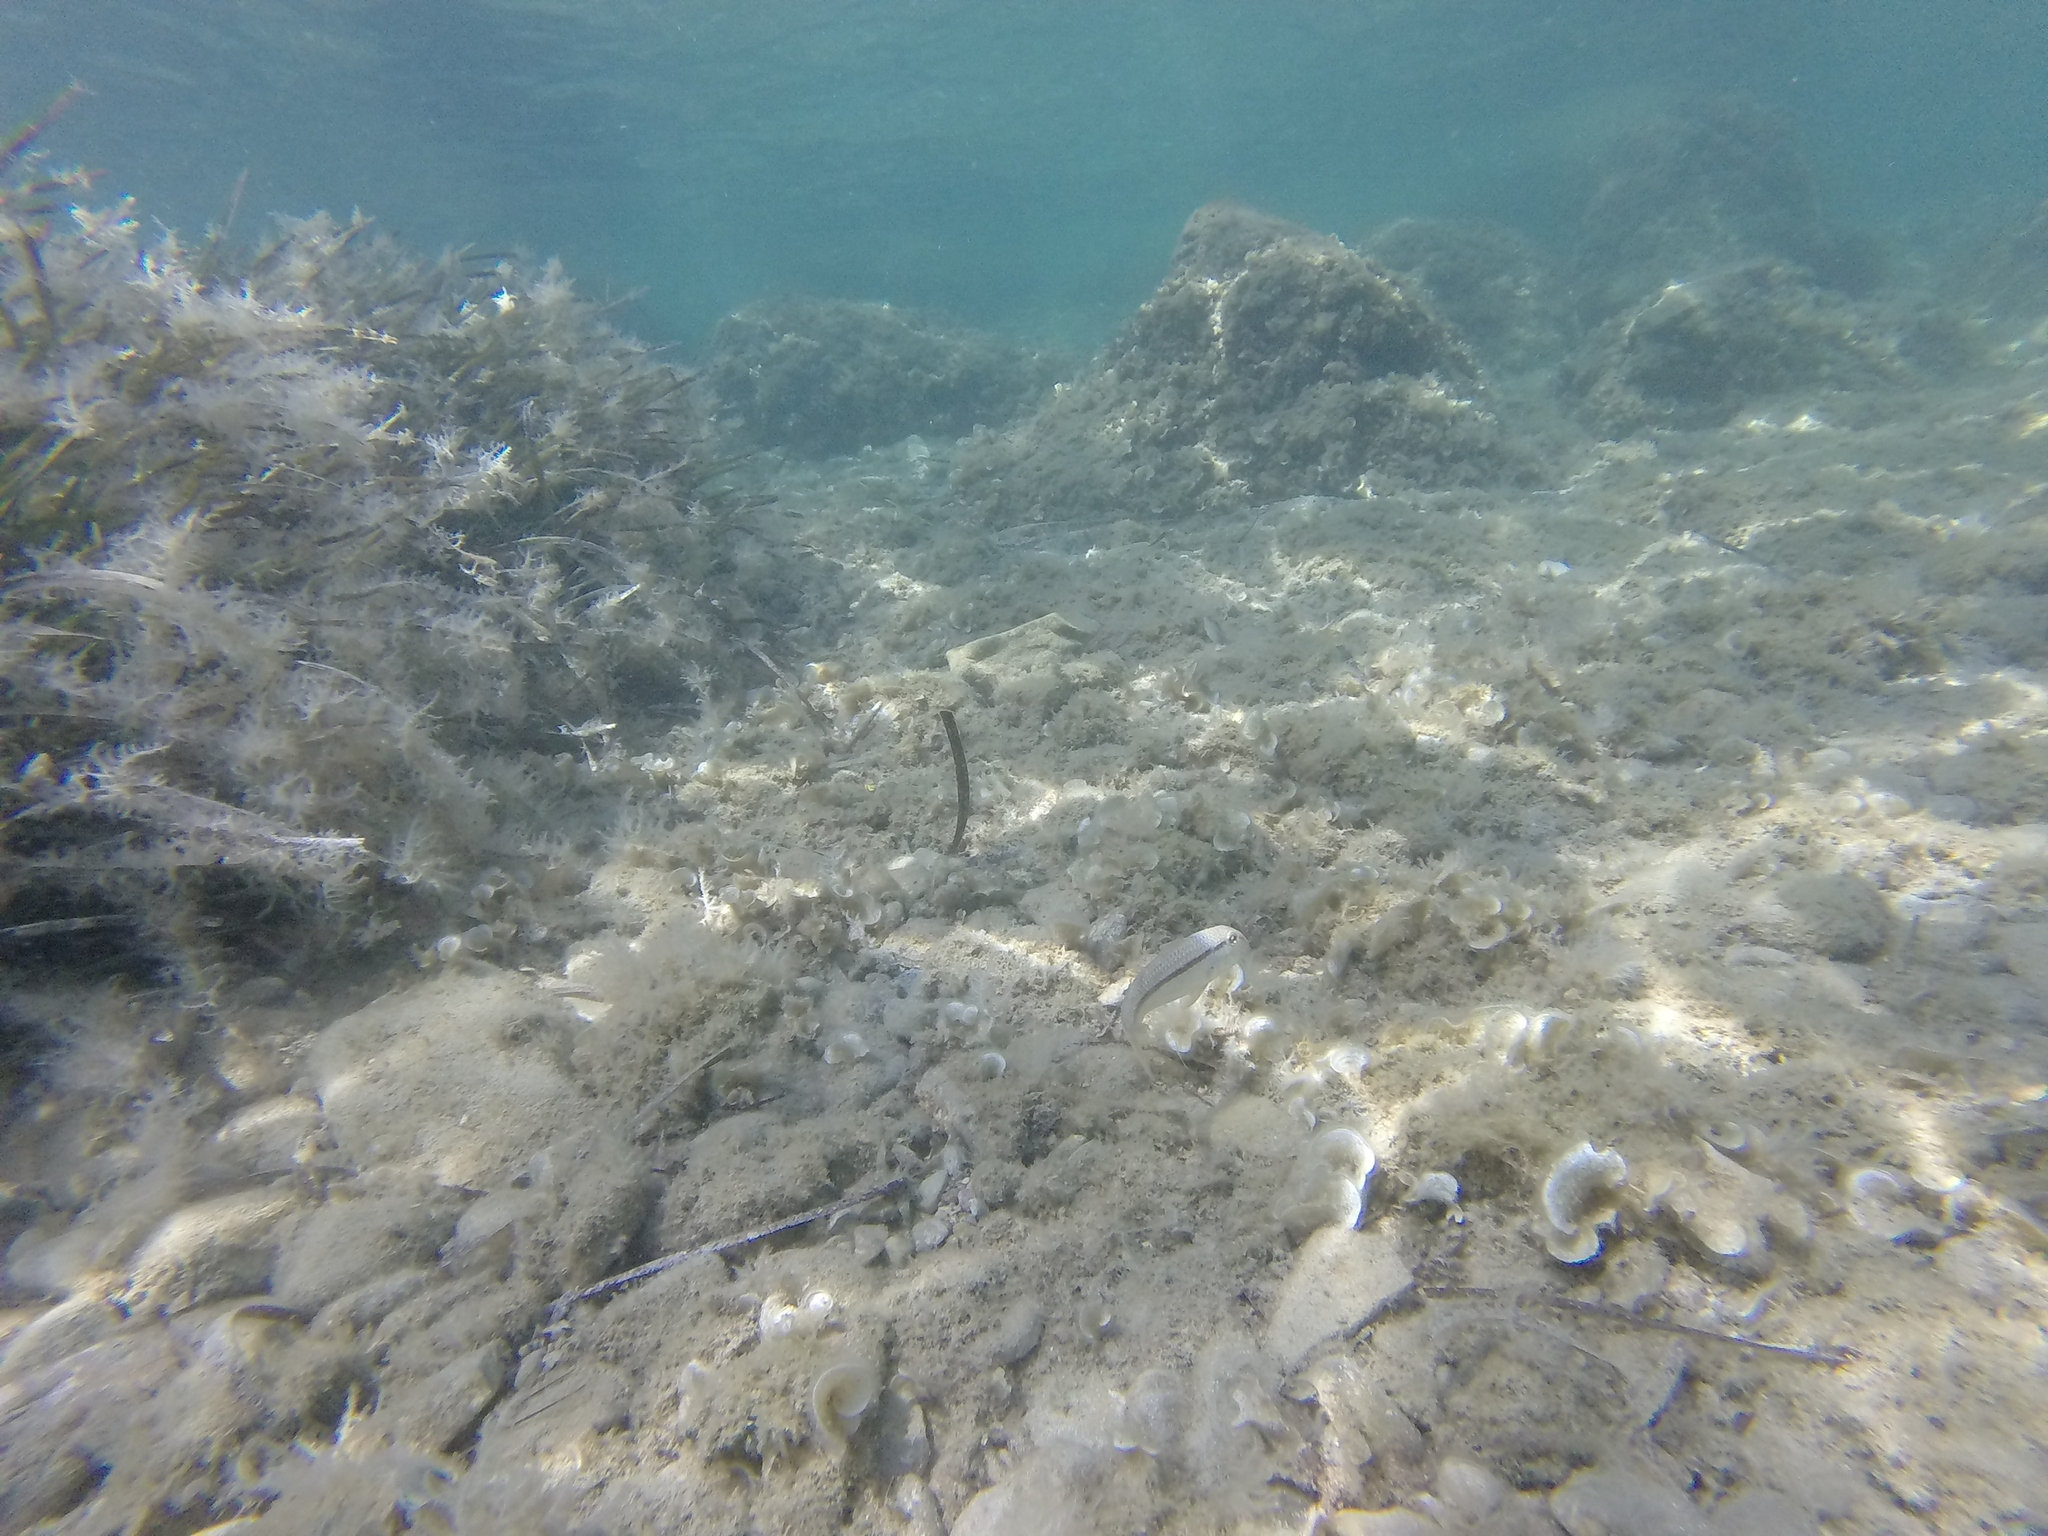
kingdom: Animalia
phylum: Chordata
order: Perciformes
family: Mullidae
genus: Mullus
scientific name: Mullus barbatus
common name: Blunt-snouted mullet
